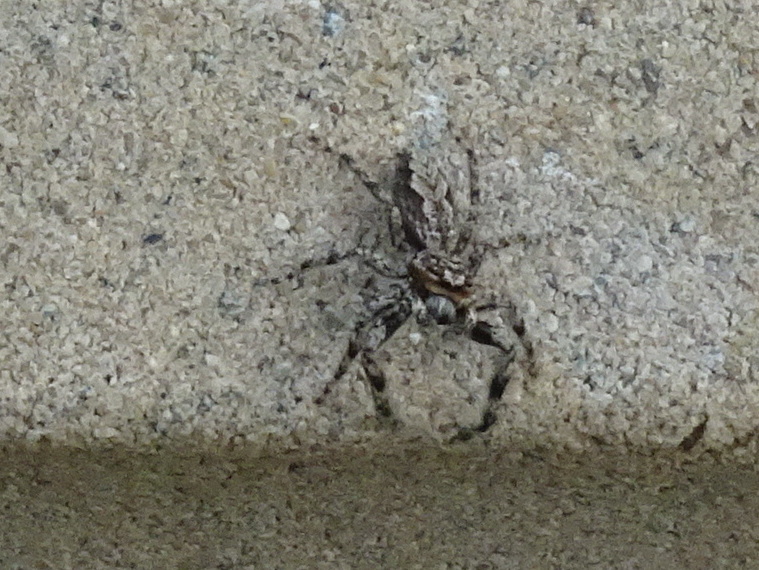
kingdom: Animalia
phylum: Arthropoda
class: Arachnida
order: Araneae
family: Salticidae
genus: Platycryptus
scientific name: Platycryptus undatus
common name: Tan jumping spider
